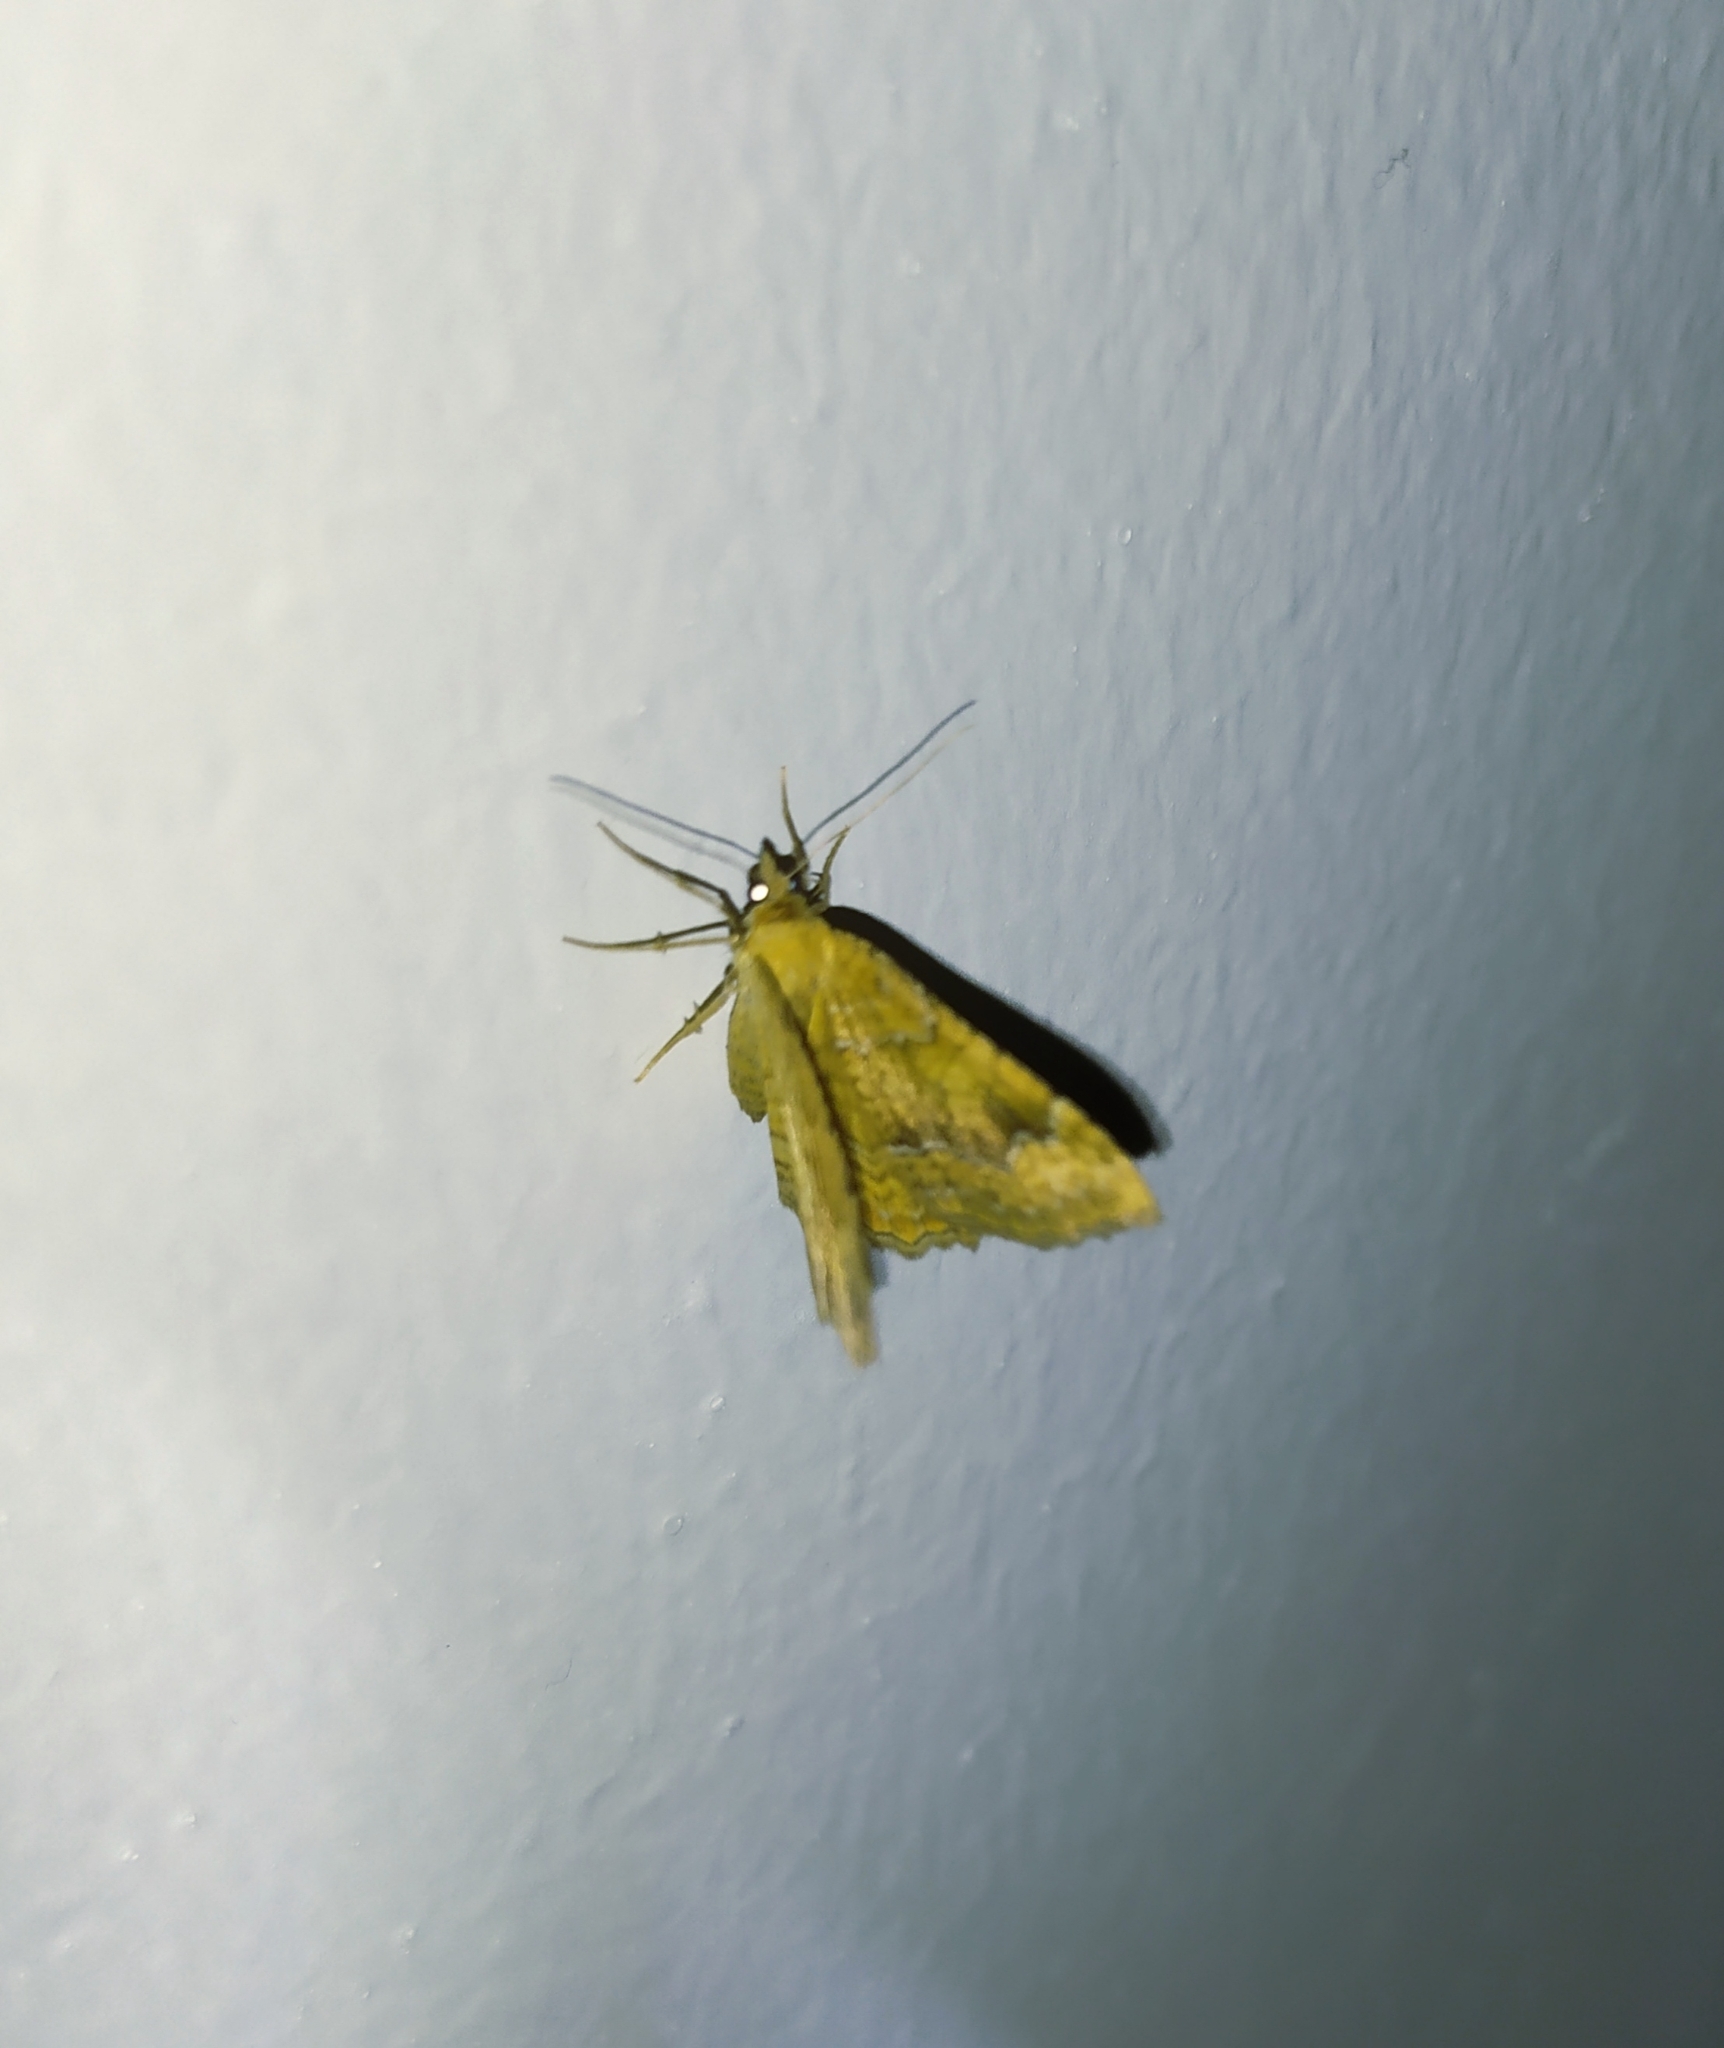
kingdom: Animalia
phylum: Arthropoda
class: Insecta
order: Lepidoptera
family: Geometridae
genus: Camptogramma
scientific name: Camptogramma bilineata
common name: Yellow shell
